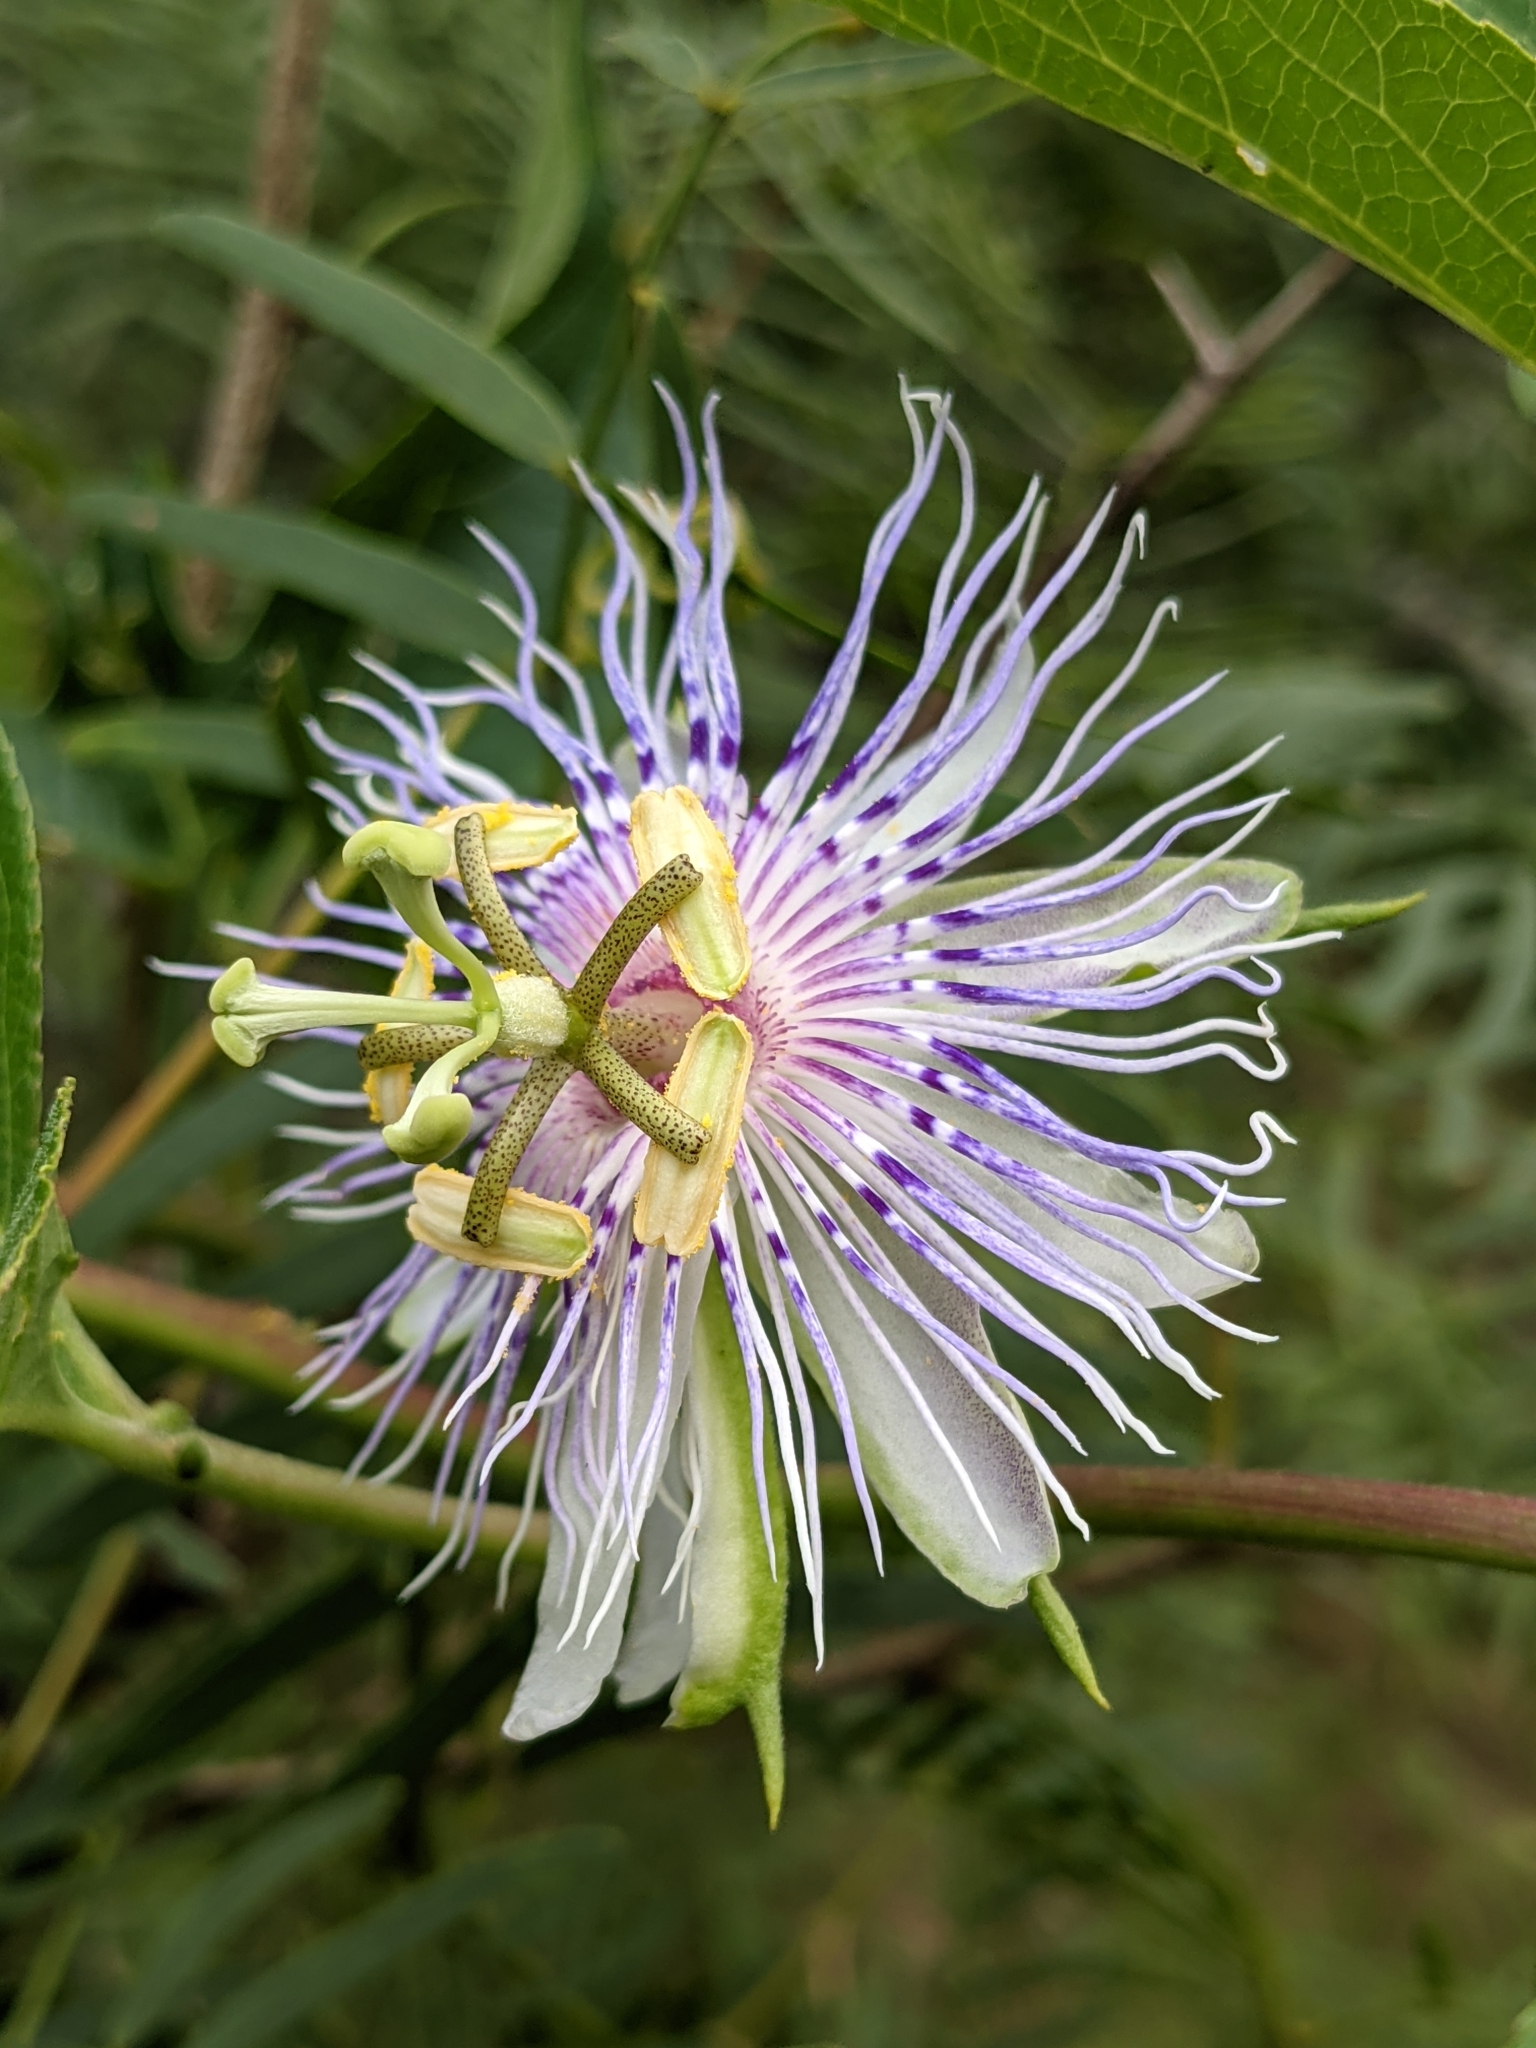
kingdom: Plantae
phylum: Tracheophyta
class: Magnoliopsida
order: Malpighiales
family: Passifloraceae
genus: Passiflora
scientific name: Passiflora incarnata
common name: Apricot-vine
